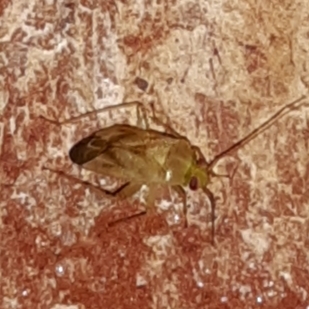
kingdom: Animalia
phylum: Arthropoda
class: Insecta
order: Hemiptera
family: Miridae
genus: Taylorilygus
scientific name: Taylorilygus apicalis
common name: Plant bug
